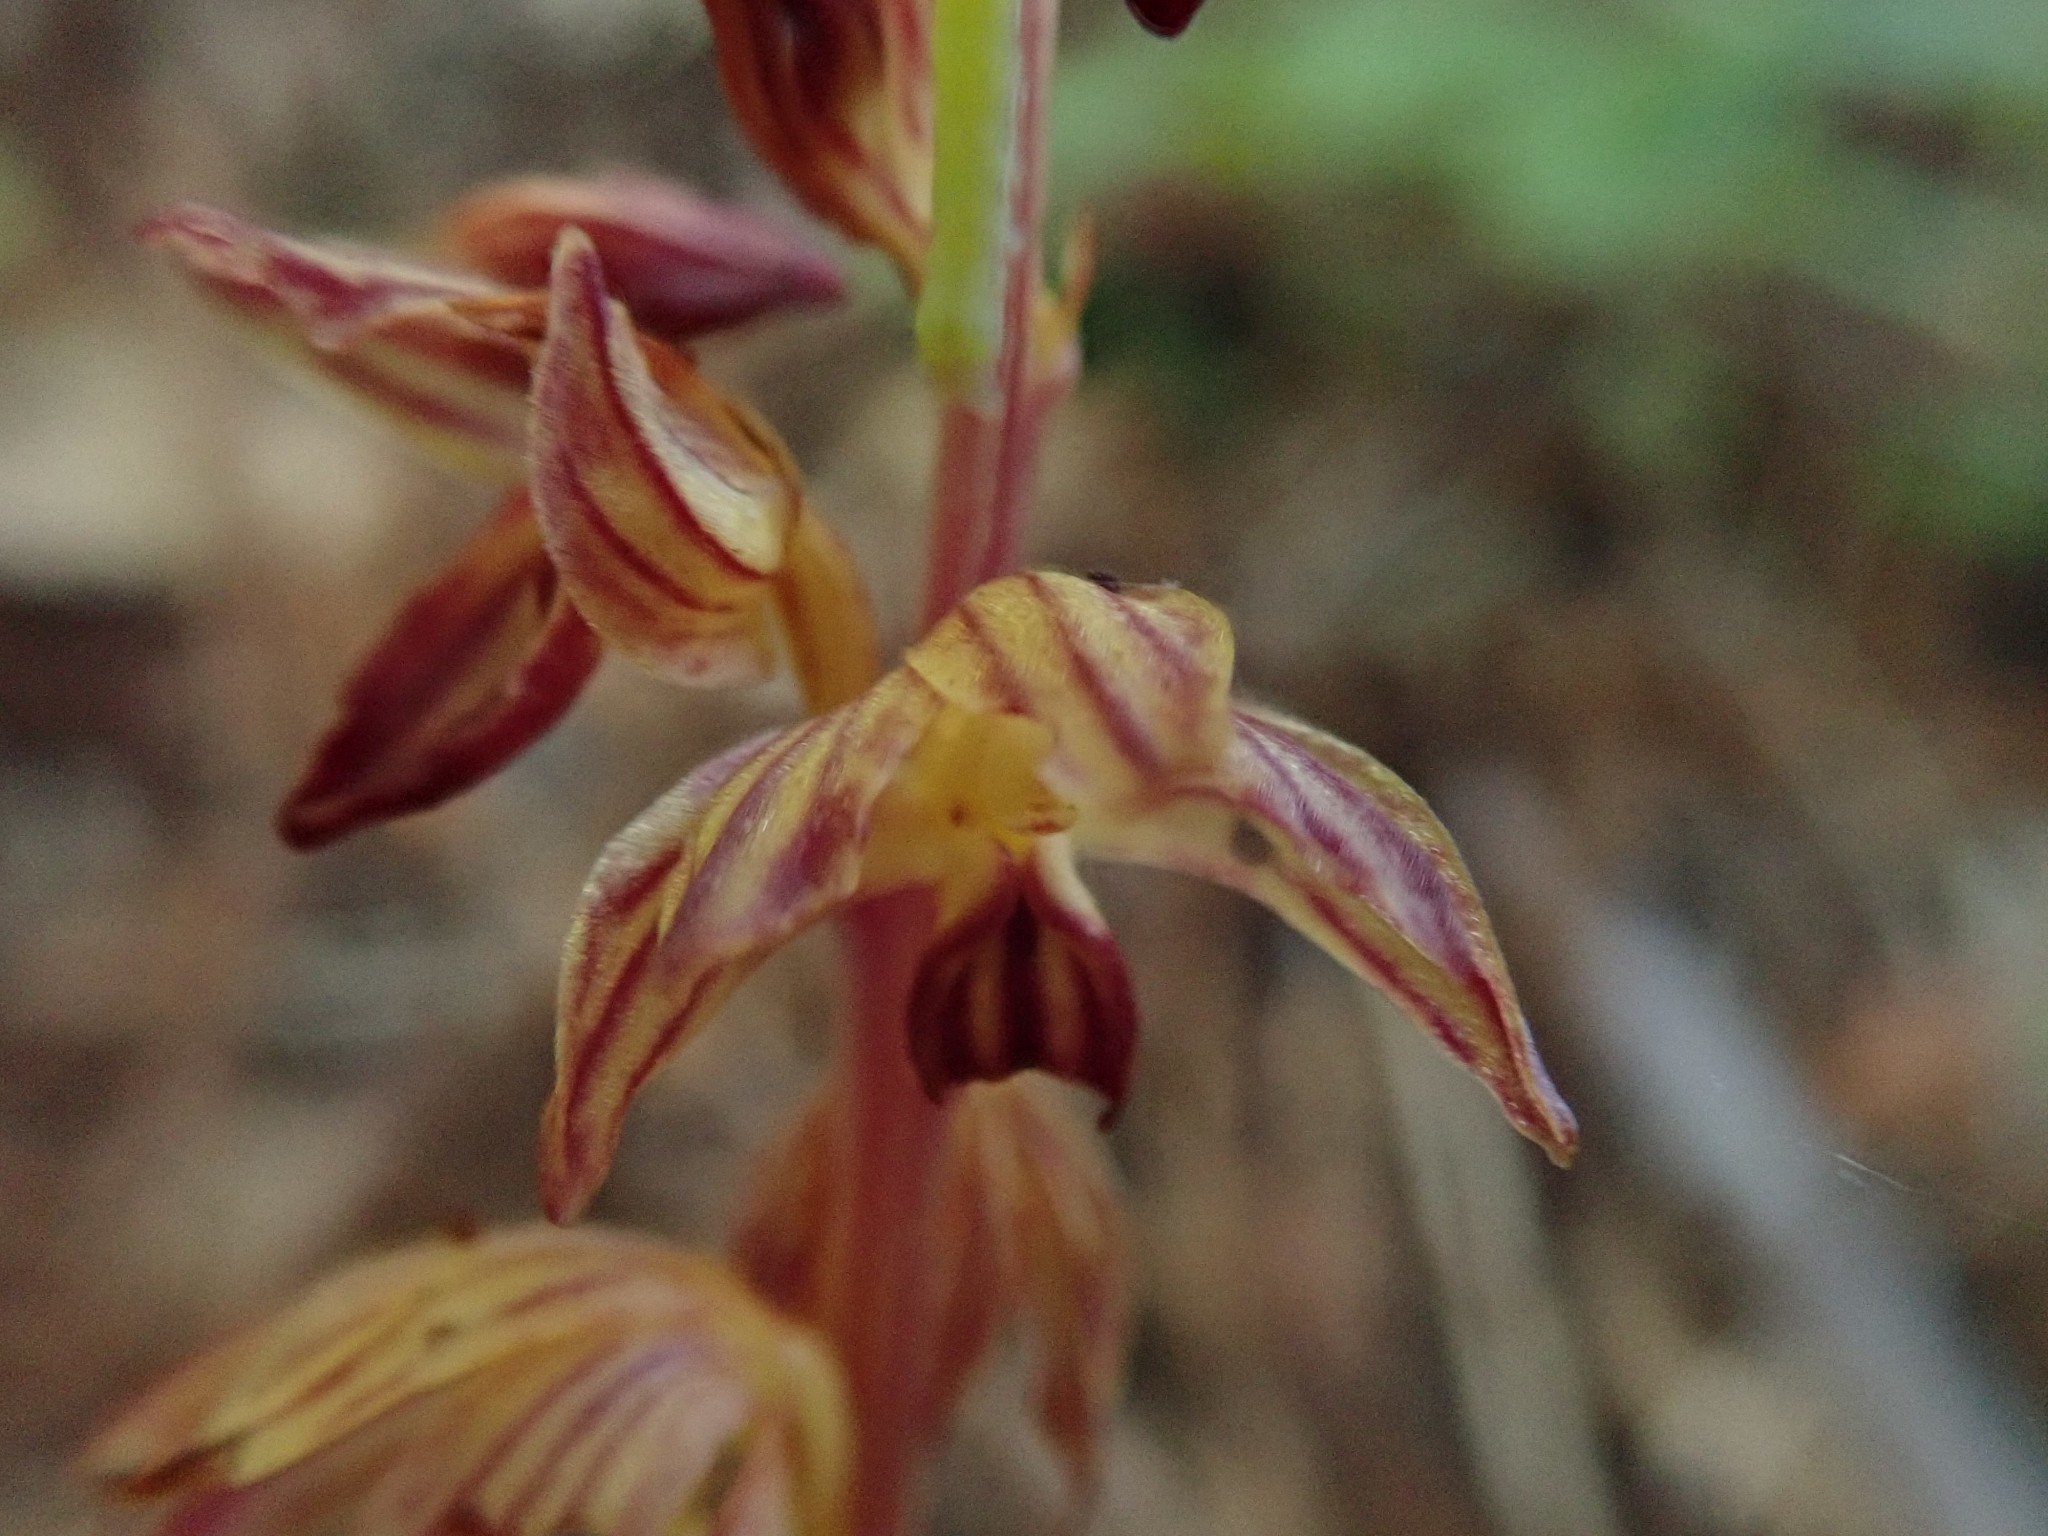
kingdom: Plantae
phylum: Tracheophyta
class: Liliopsida
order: Asparagales
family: Orchidaceae
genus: Corallorhiza
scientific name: Corallorhiza striata
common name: Hooded coralroot
